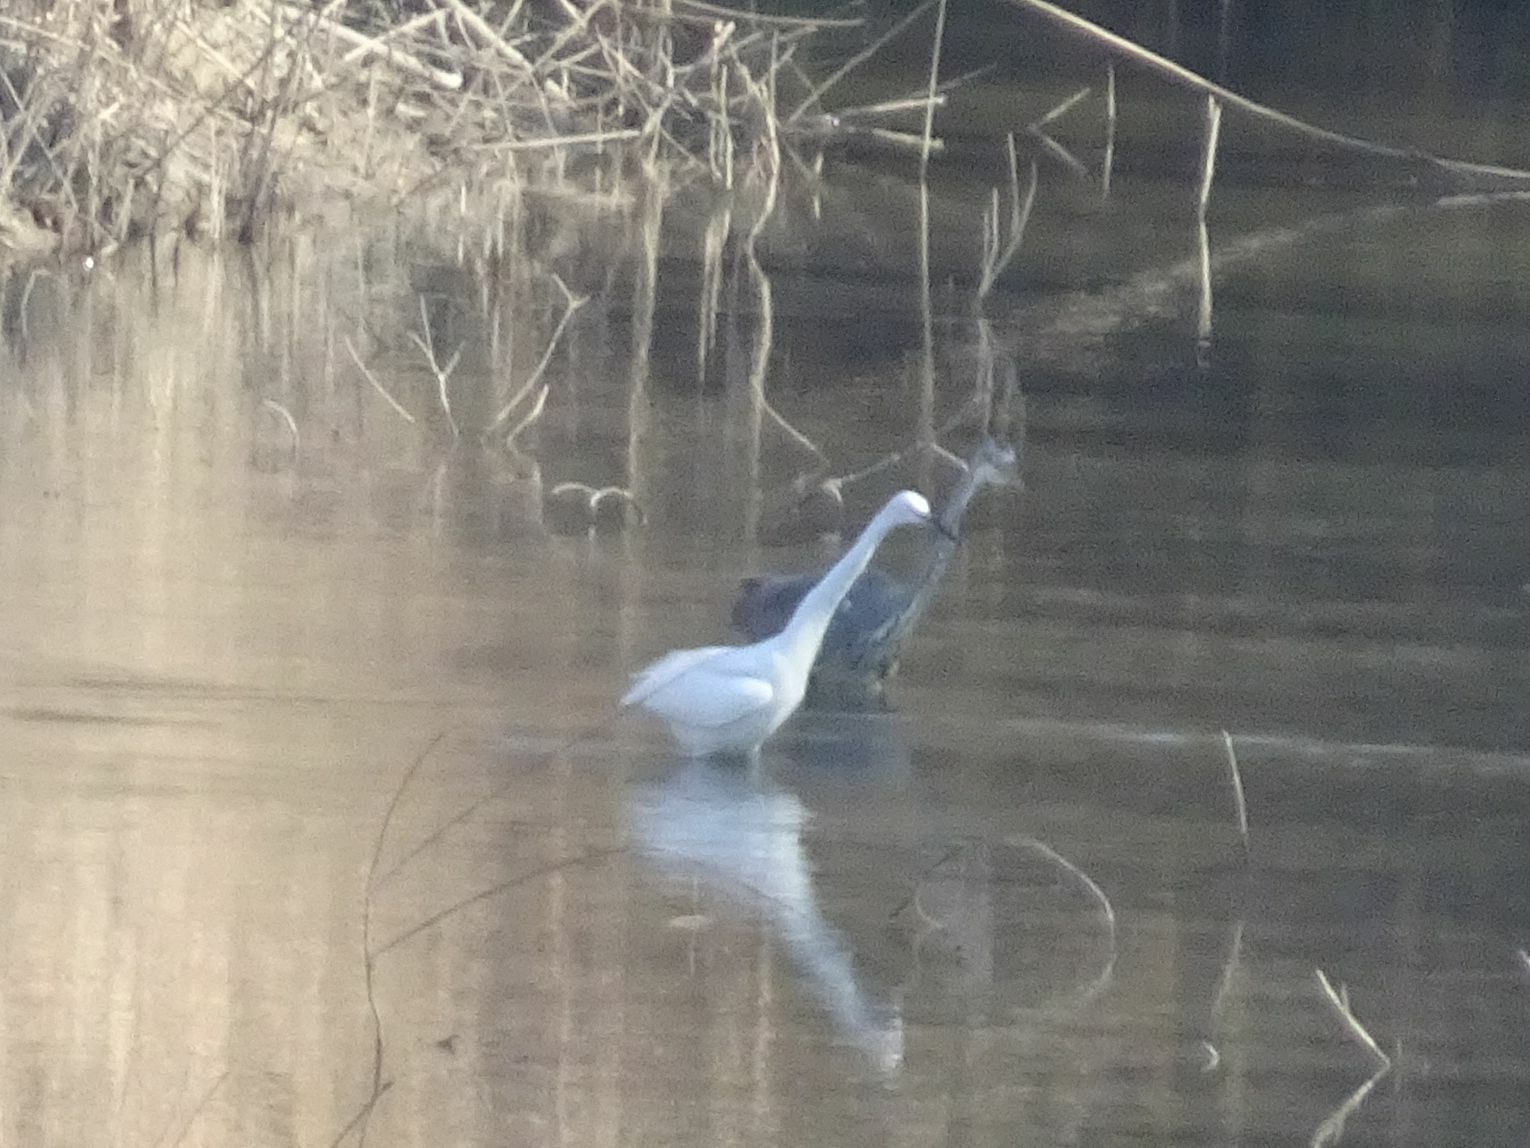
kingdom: Animalia
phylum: Chordata
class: Aves
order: Pelecaniformes
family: Ardeidae
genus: Egretta
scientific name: Egretta garzetta
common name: Little egret
